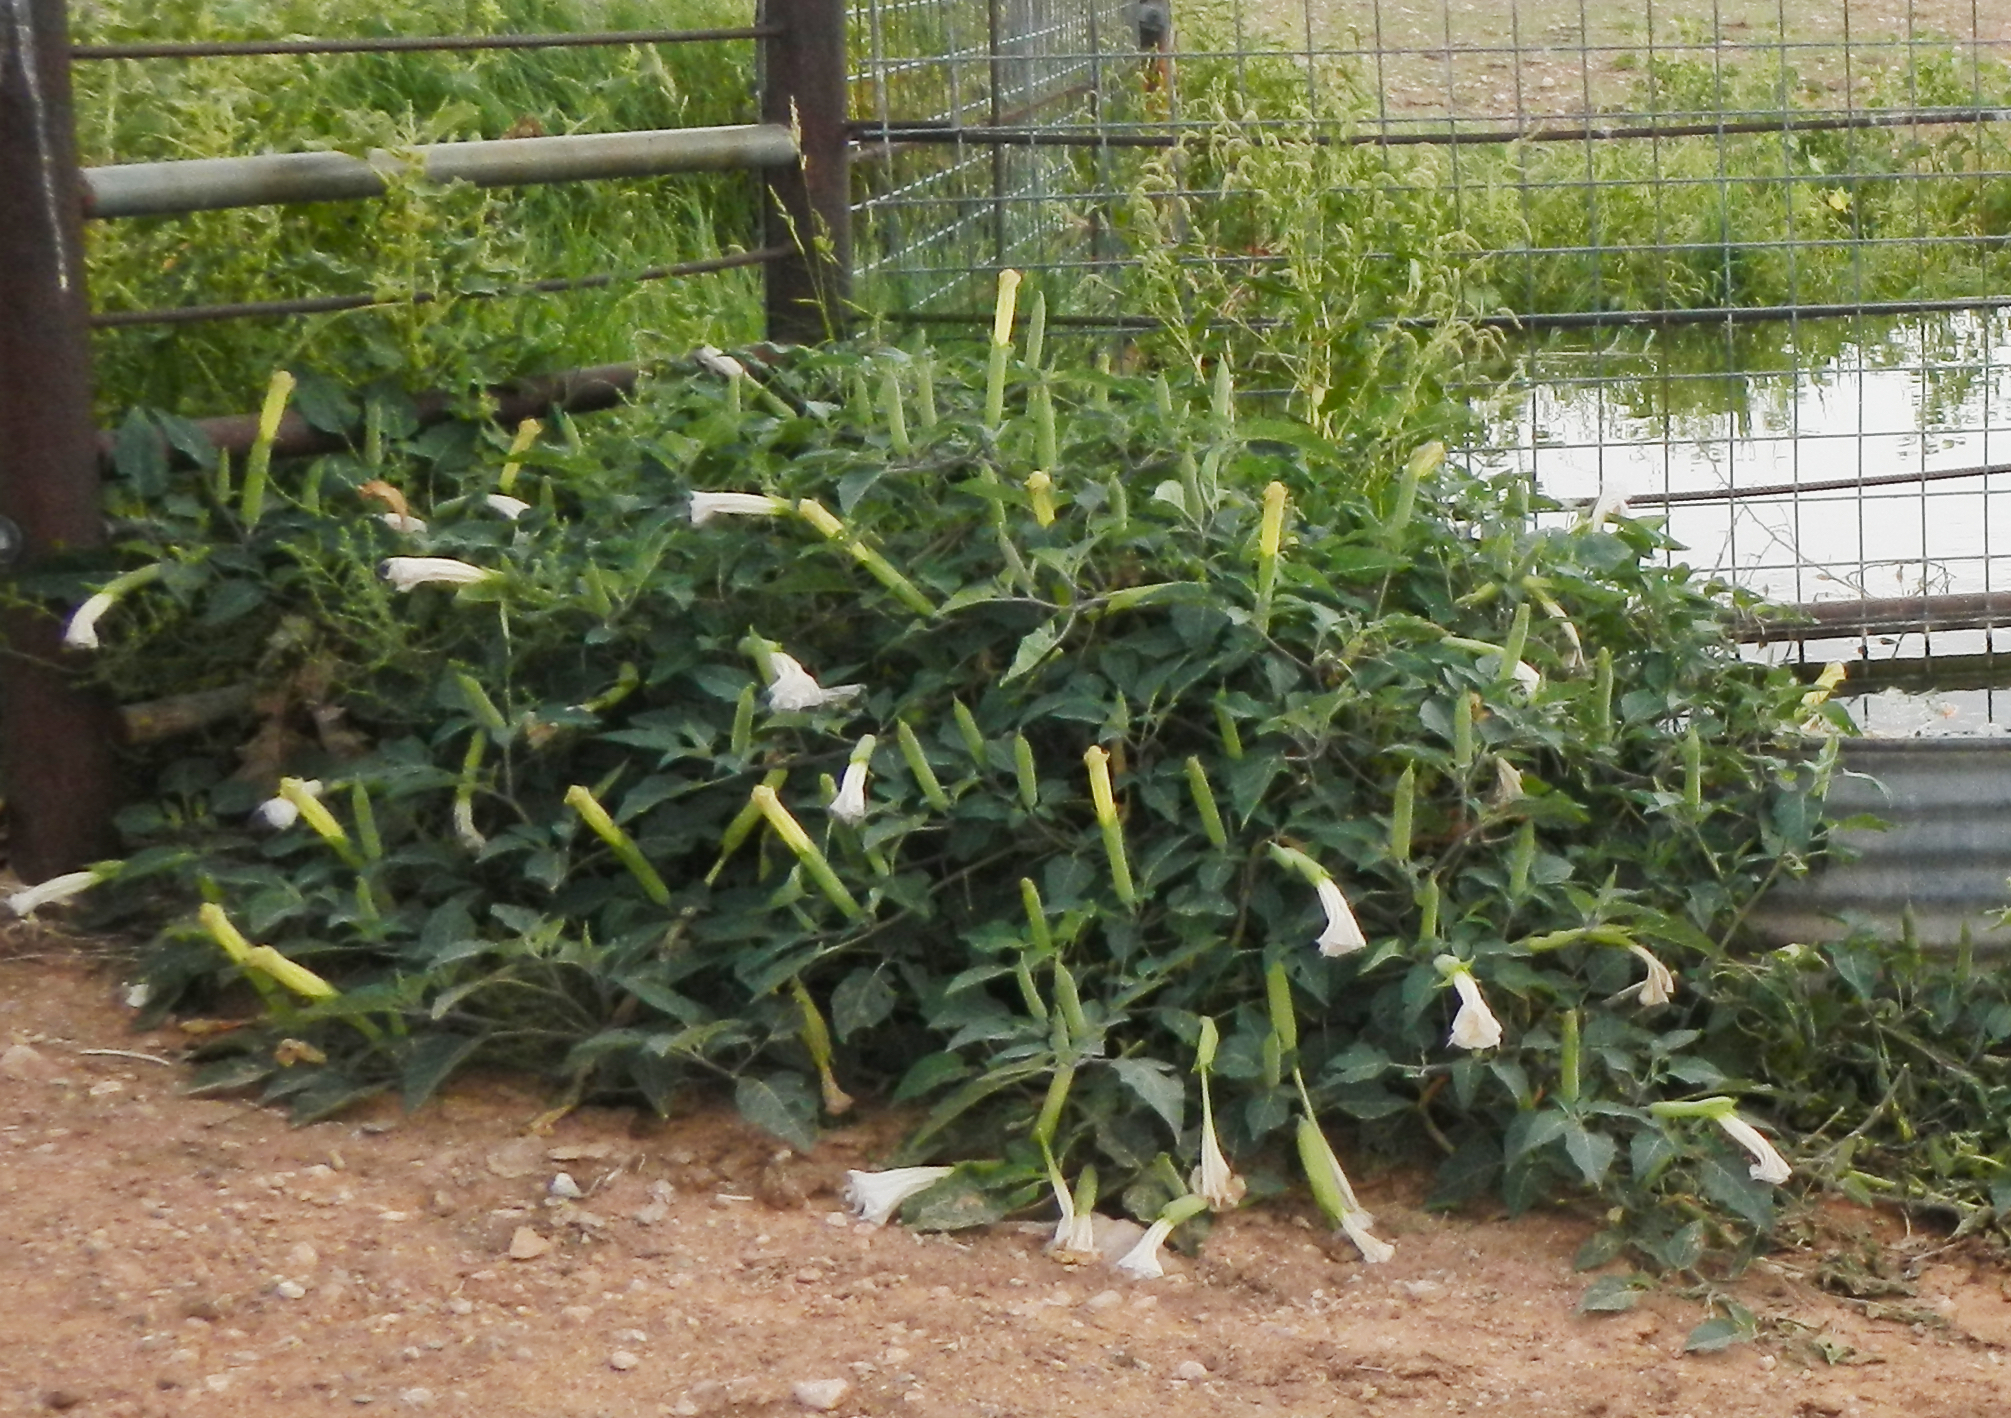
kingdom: Plantae
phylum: Tracheophyta
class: Magnoliopsida
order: Solanales
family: Solanaceae
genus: Datura
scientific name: Datura wrightii
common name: Sacred thorn-apple
